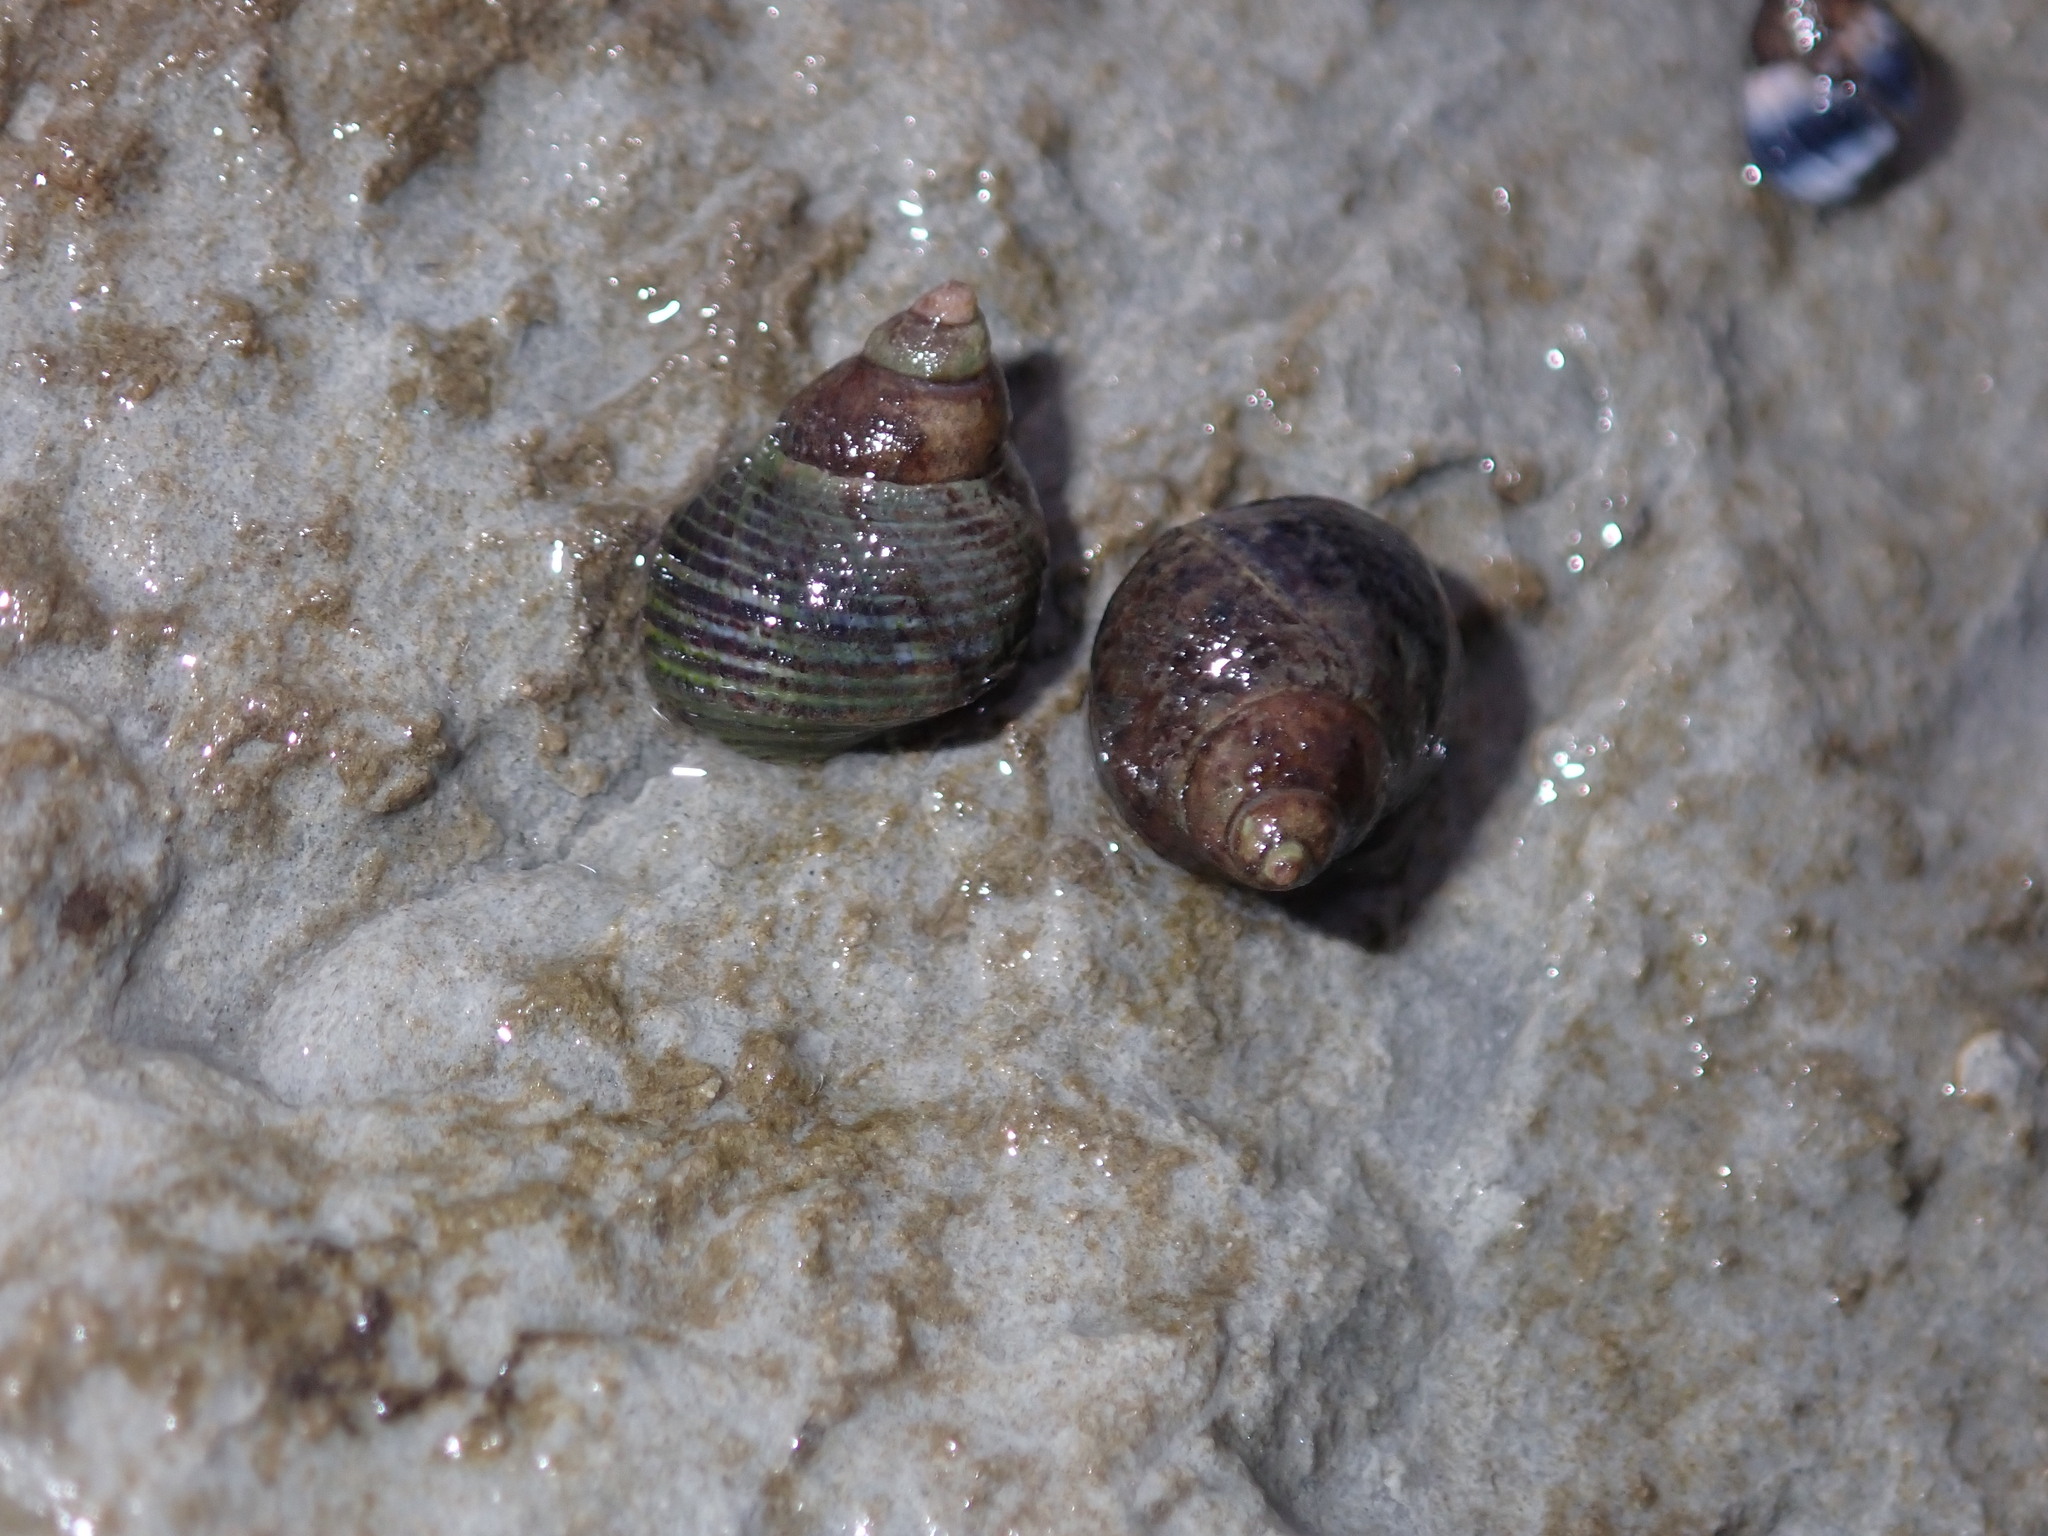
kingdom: Animalia
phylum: Mollusca
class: Gastropoda
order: Littorinimorpha
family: Littorinidae
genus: Austrolittorina
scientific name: Austrolittorina cincta
